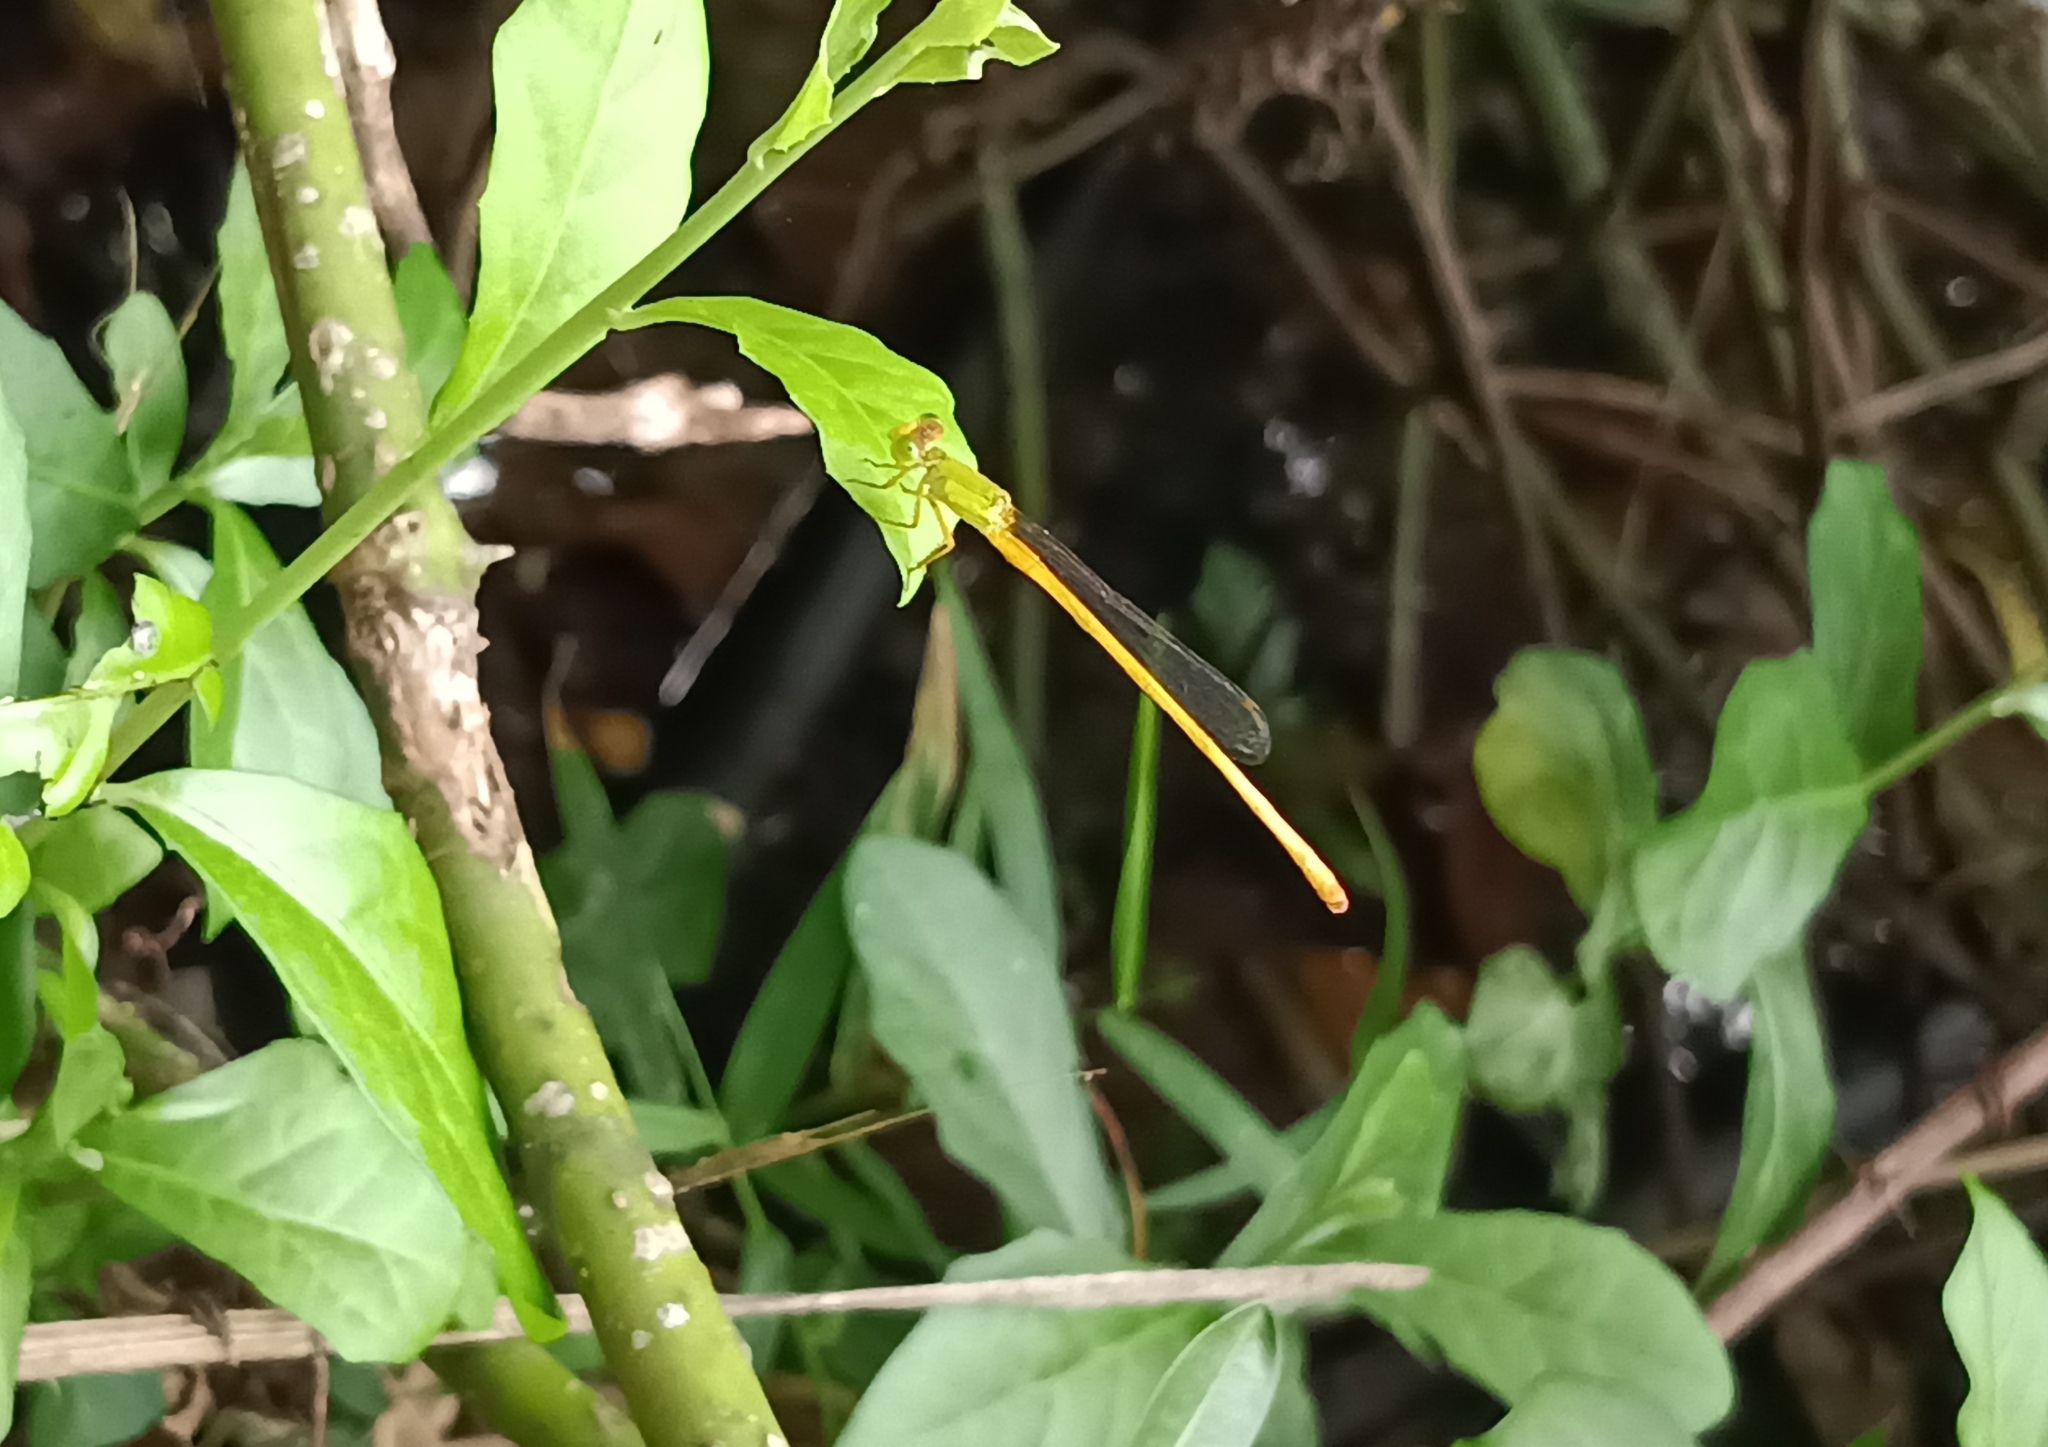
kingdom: Animalia
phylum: Arthropoda
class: Insecta
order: Odonata
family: Coenagrionidae
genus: Ceriagrion
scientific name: Ceriagrion coromandelianum
